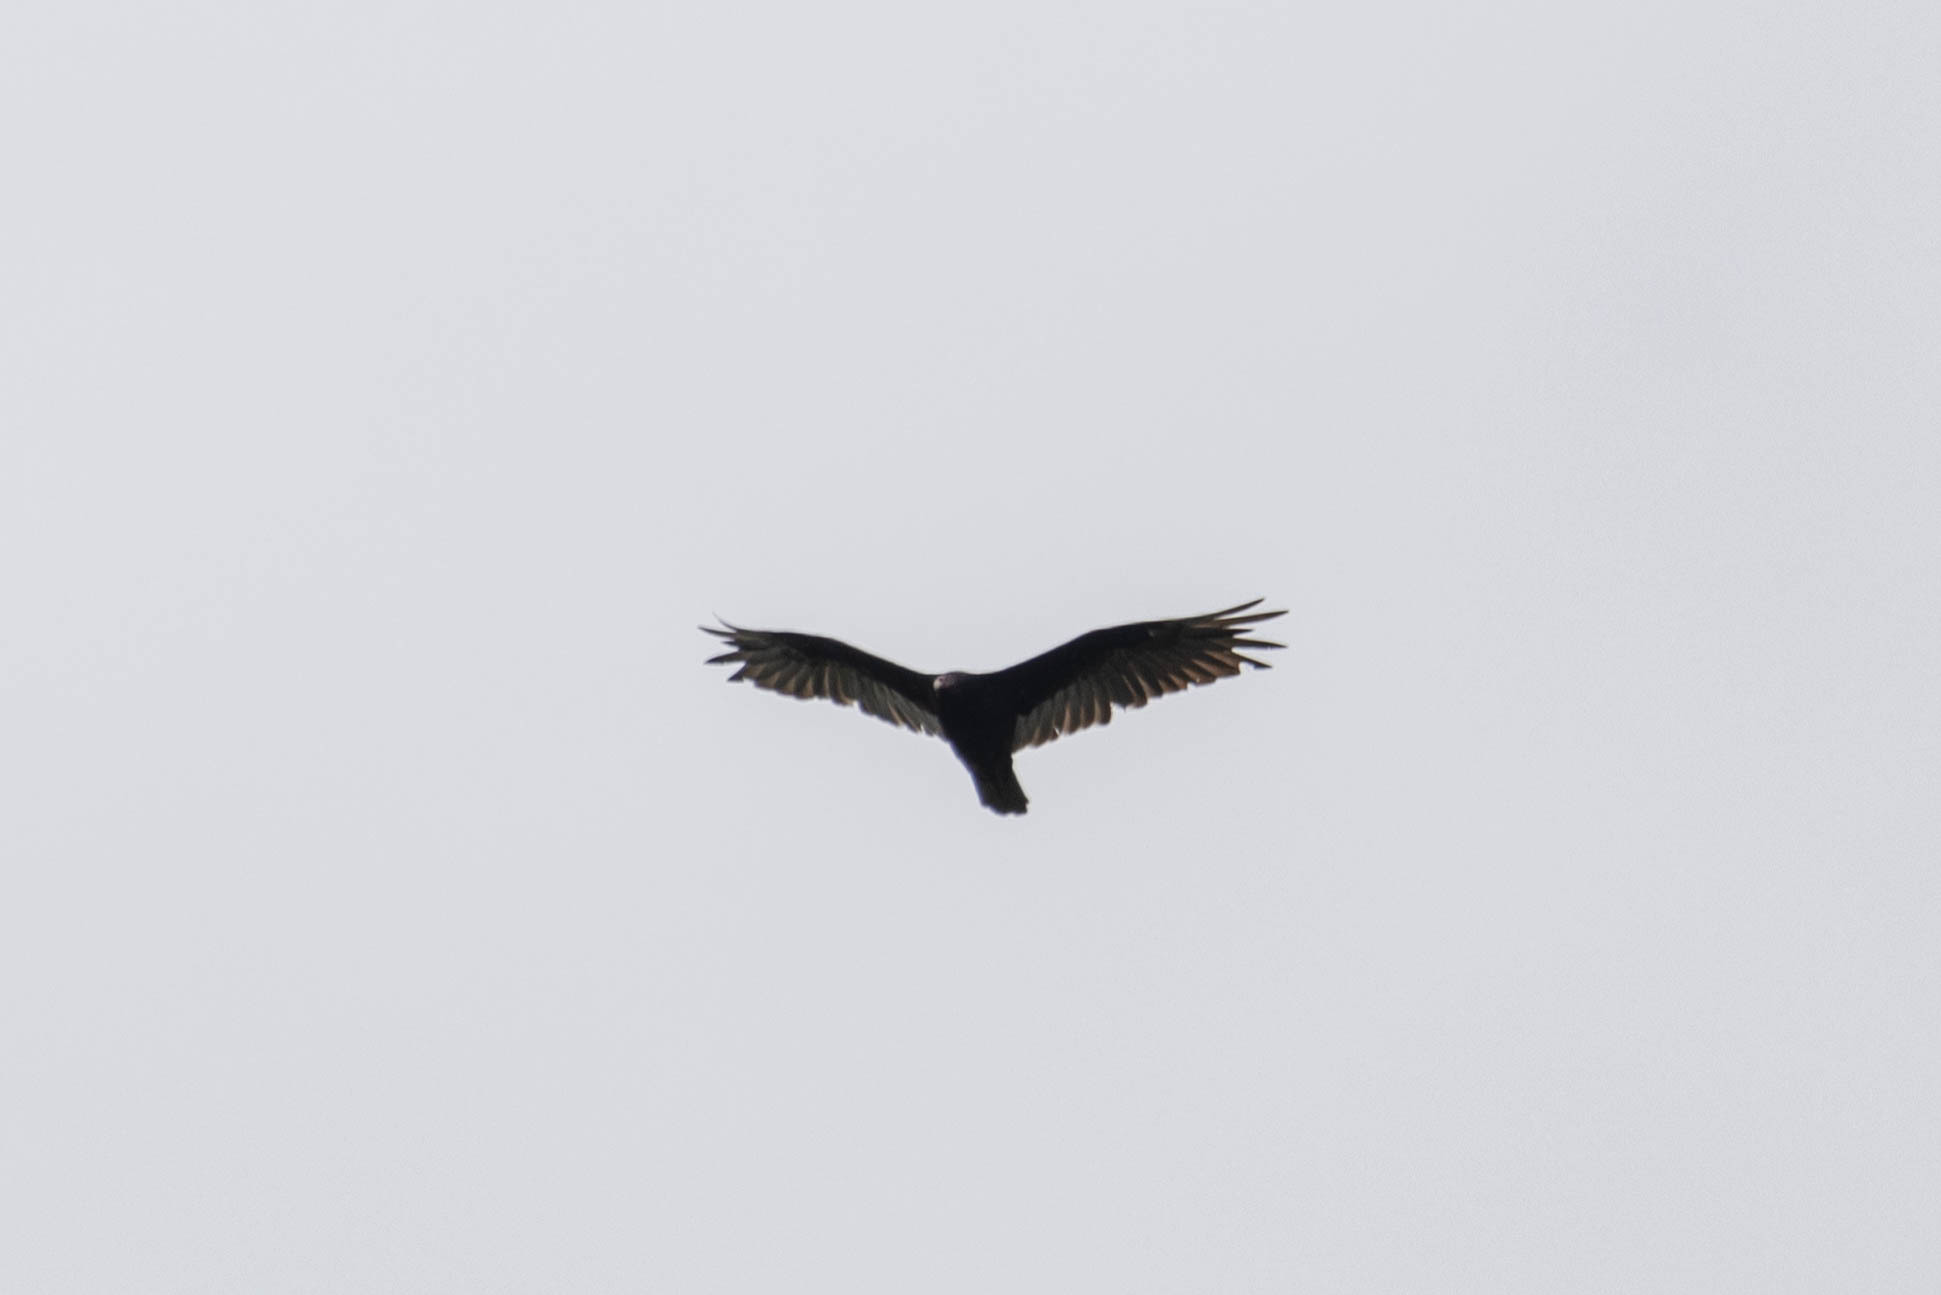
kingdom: Animalia
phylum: Chordata
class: Aves
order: Accipitriformes
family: Cathartidae
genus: Cathartes
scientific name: Cathartes aura
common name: Turkey vulture
